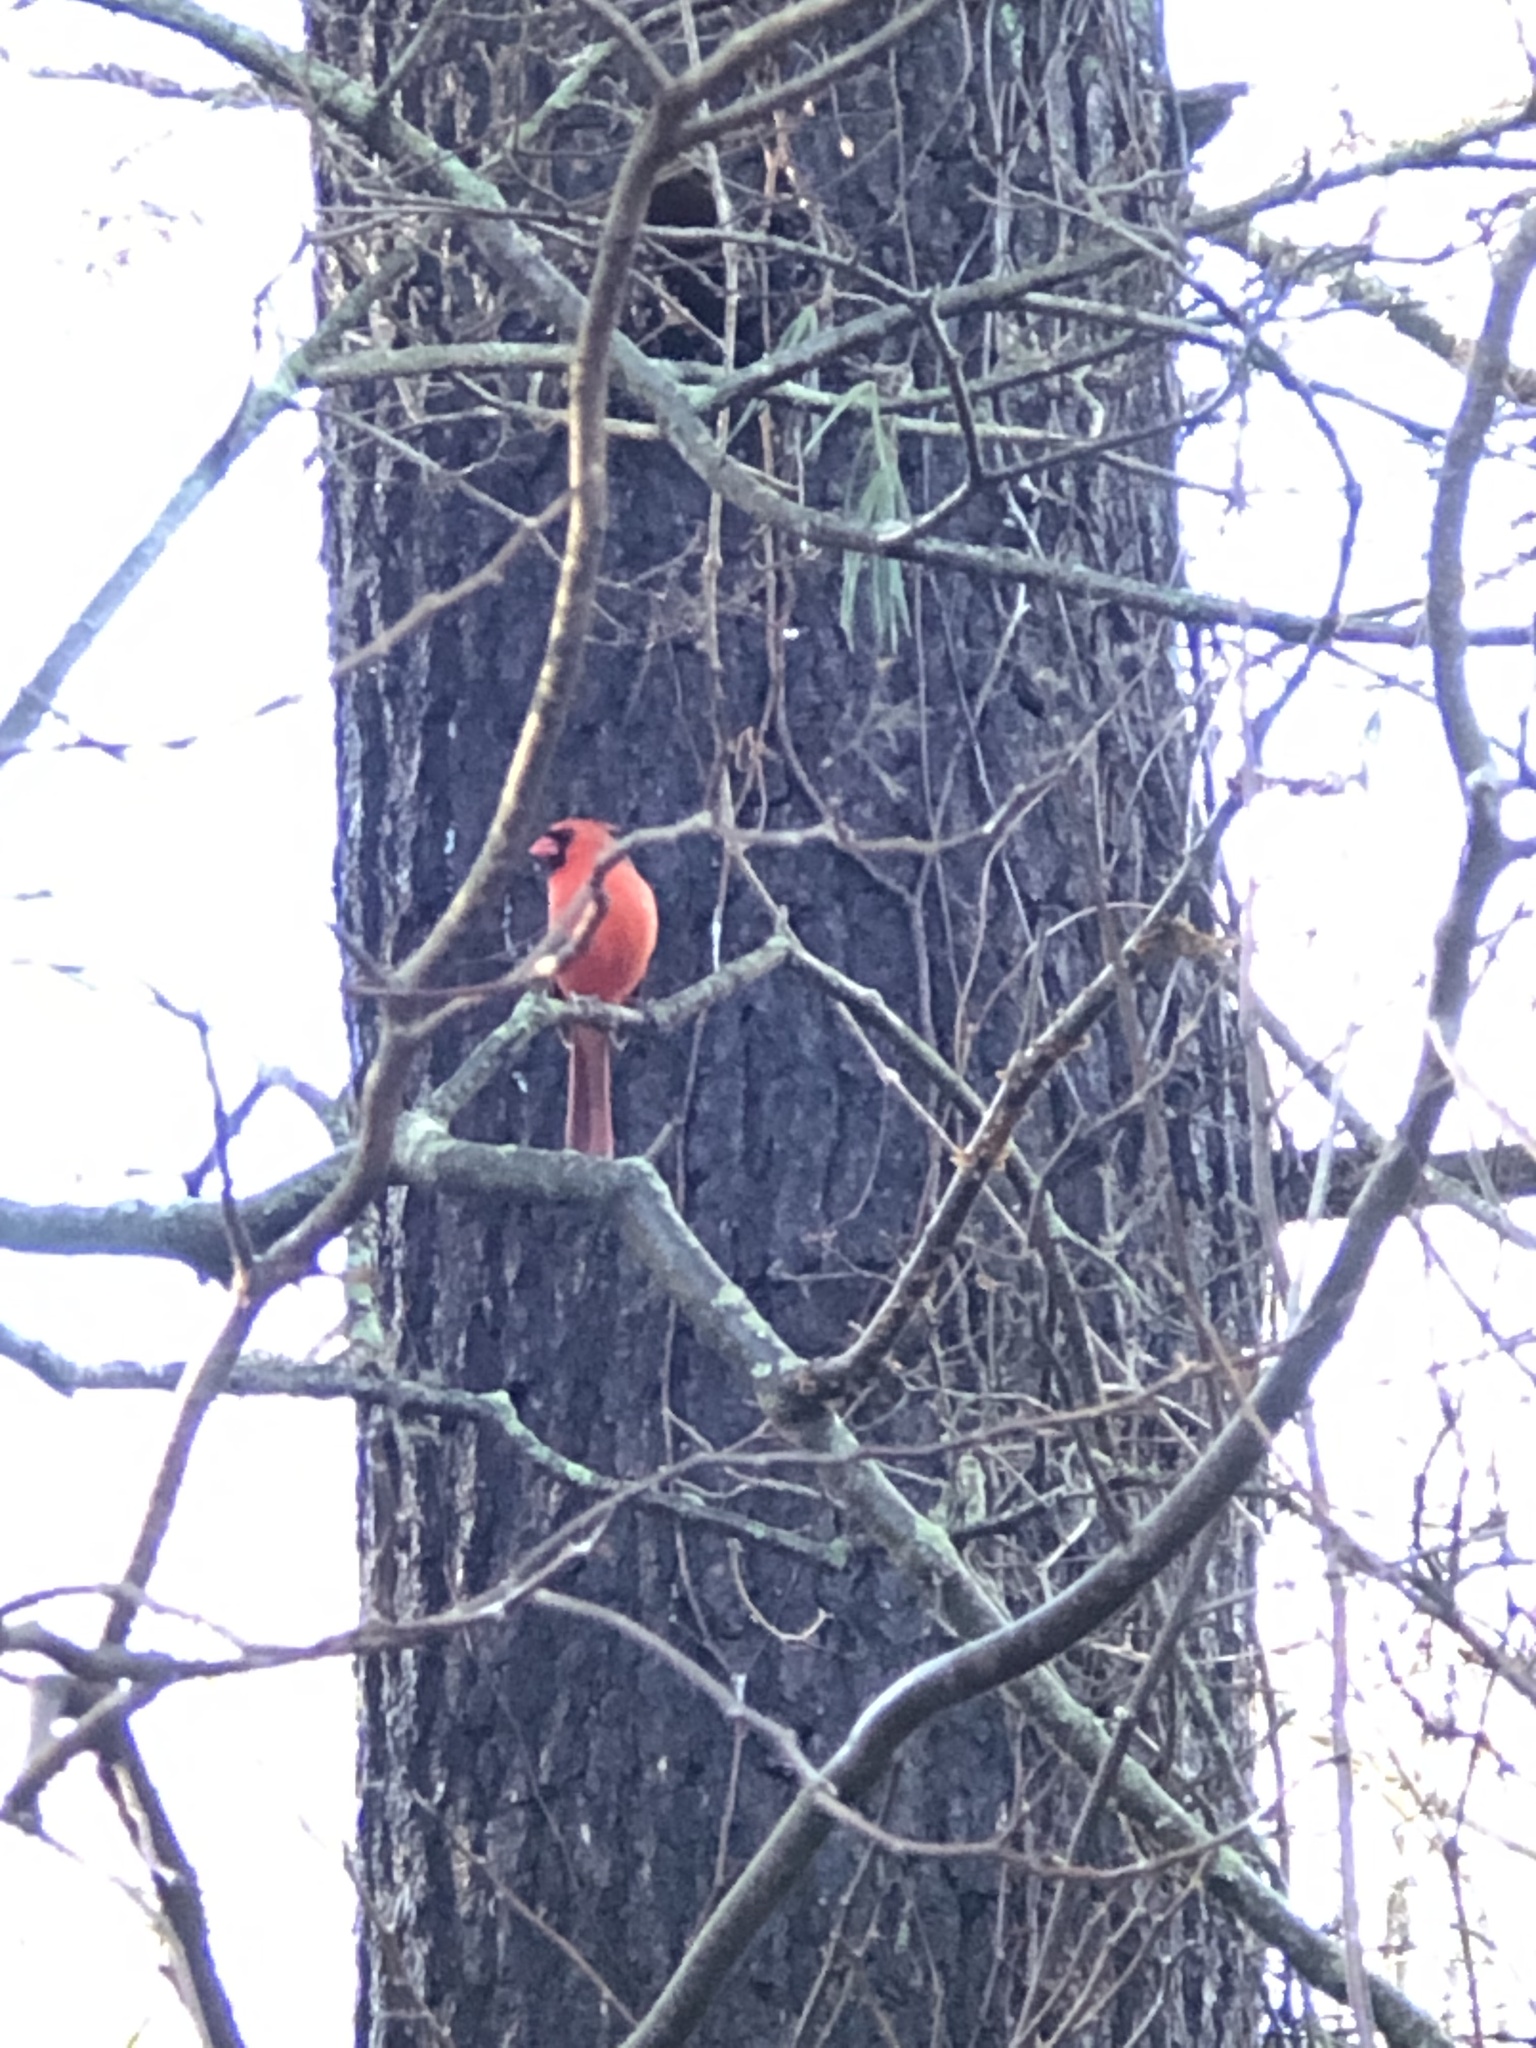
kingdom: Animalia
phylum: Chordata
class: Aves
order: Passeriformes
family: Cardinalidae
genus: Cardinalis
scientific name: Cardinalis cardinalis
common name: Northern cardinal
